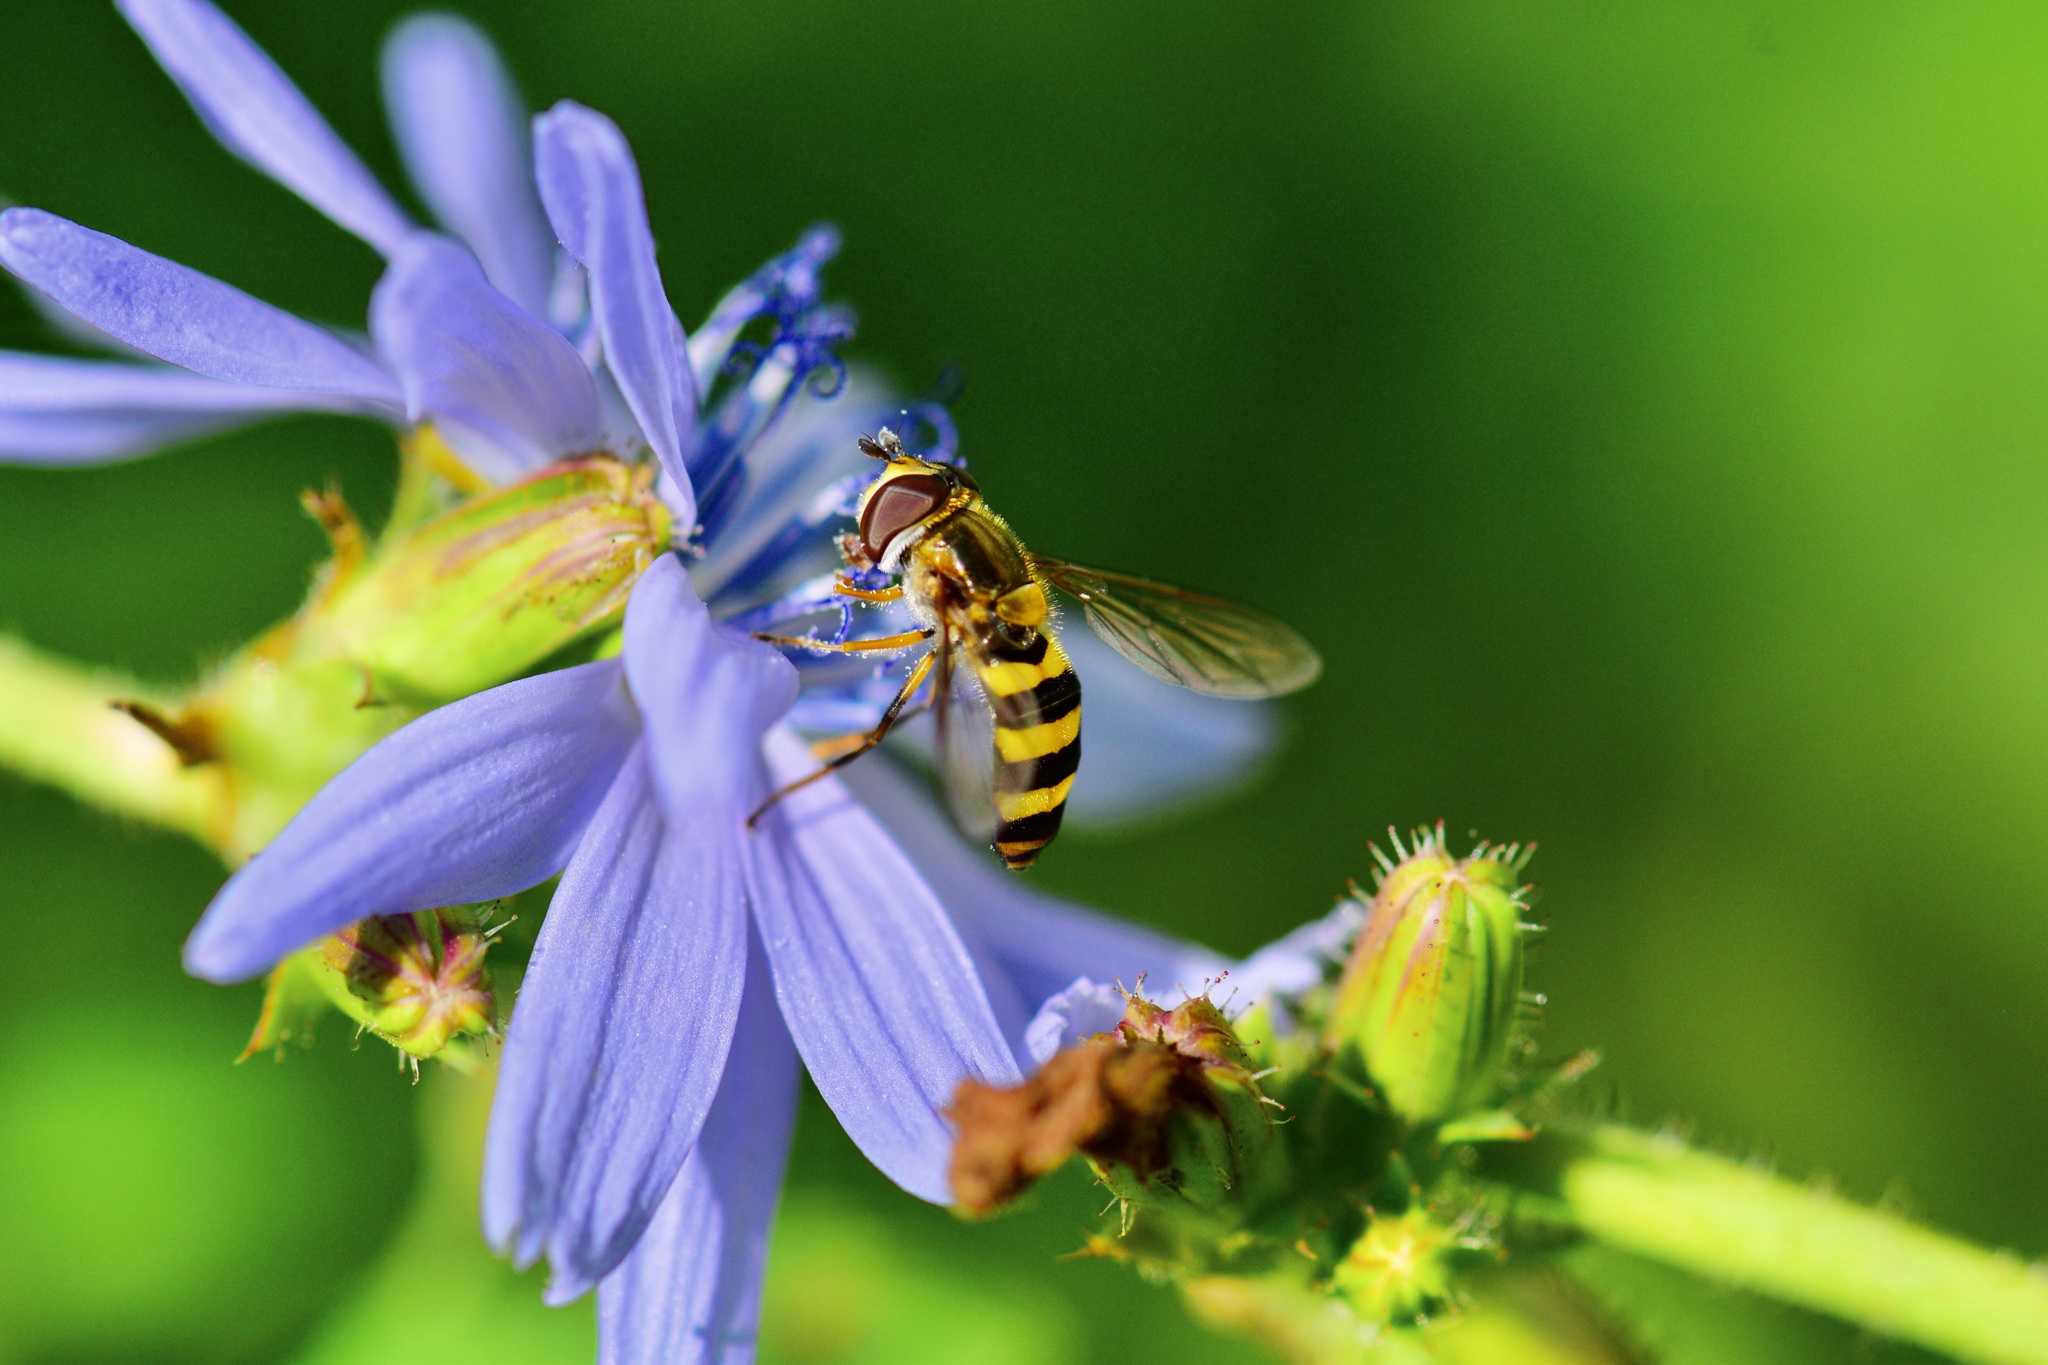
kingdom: Animalia
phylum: Arthropoda
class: Insecta
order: Diptera
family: Syrphidae
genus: Eupeodes
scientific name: Eupeodes
